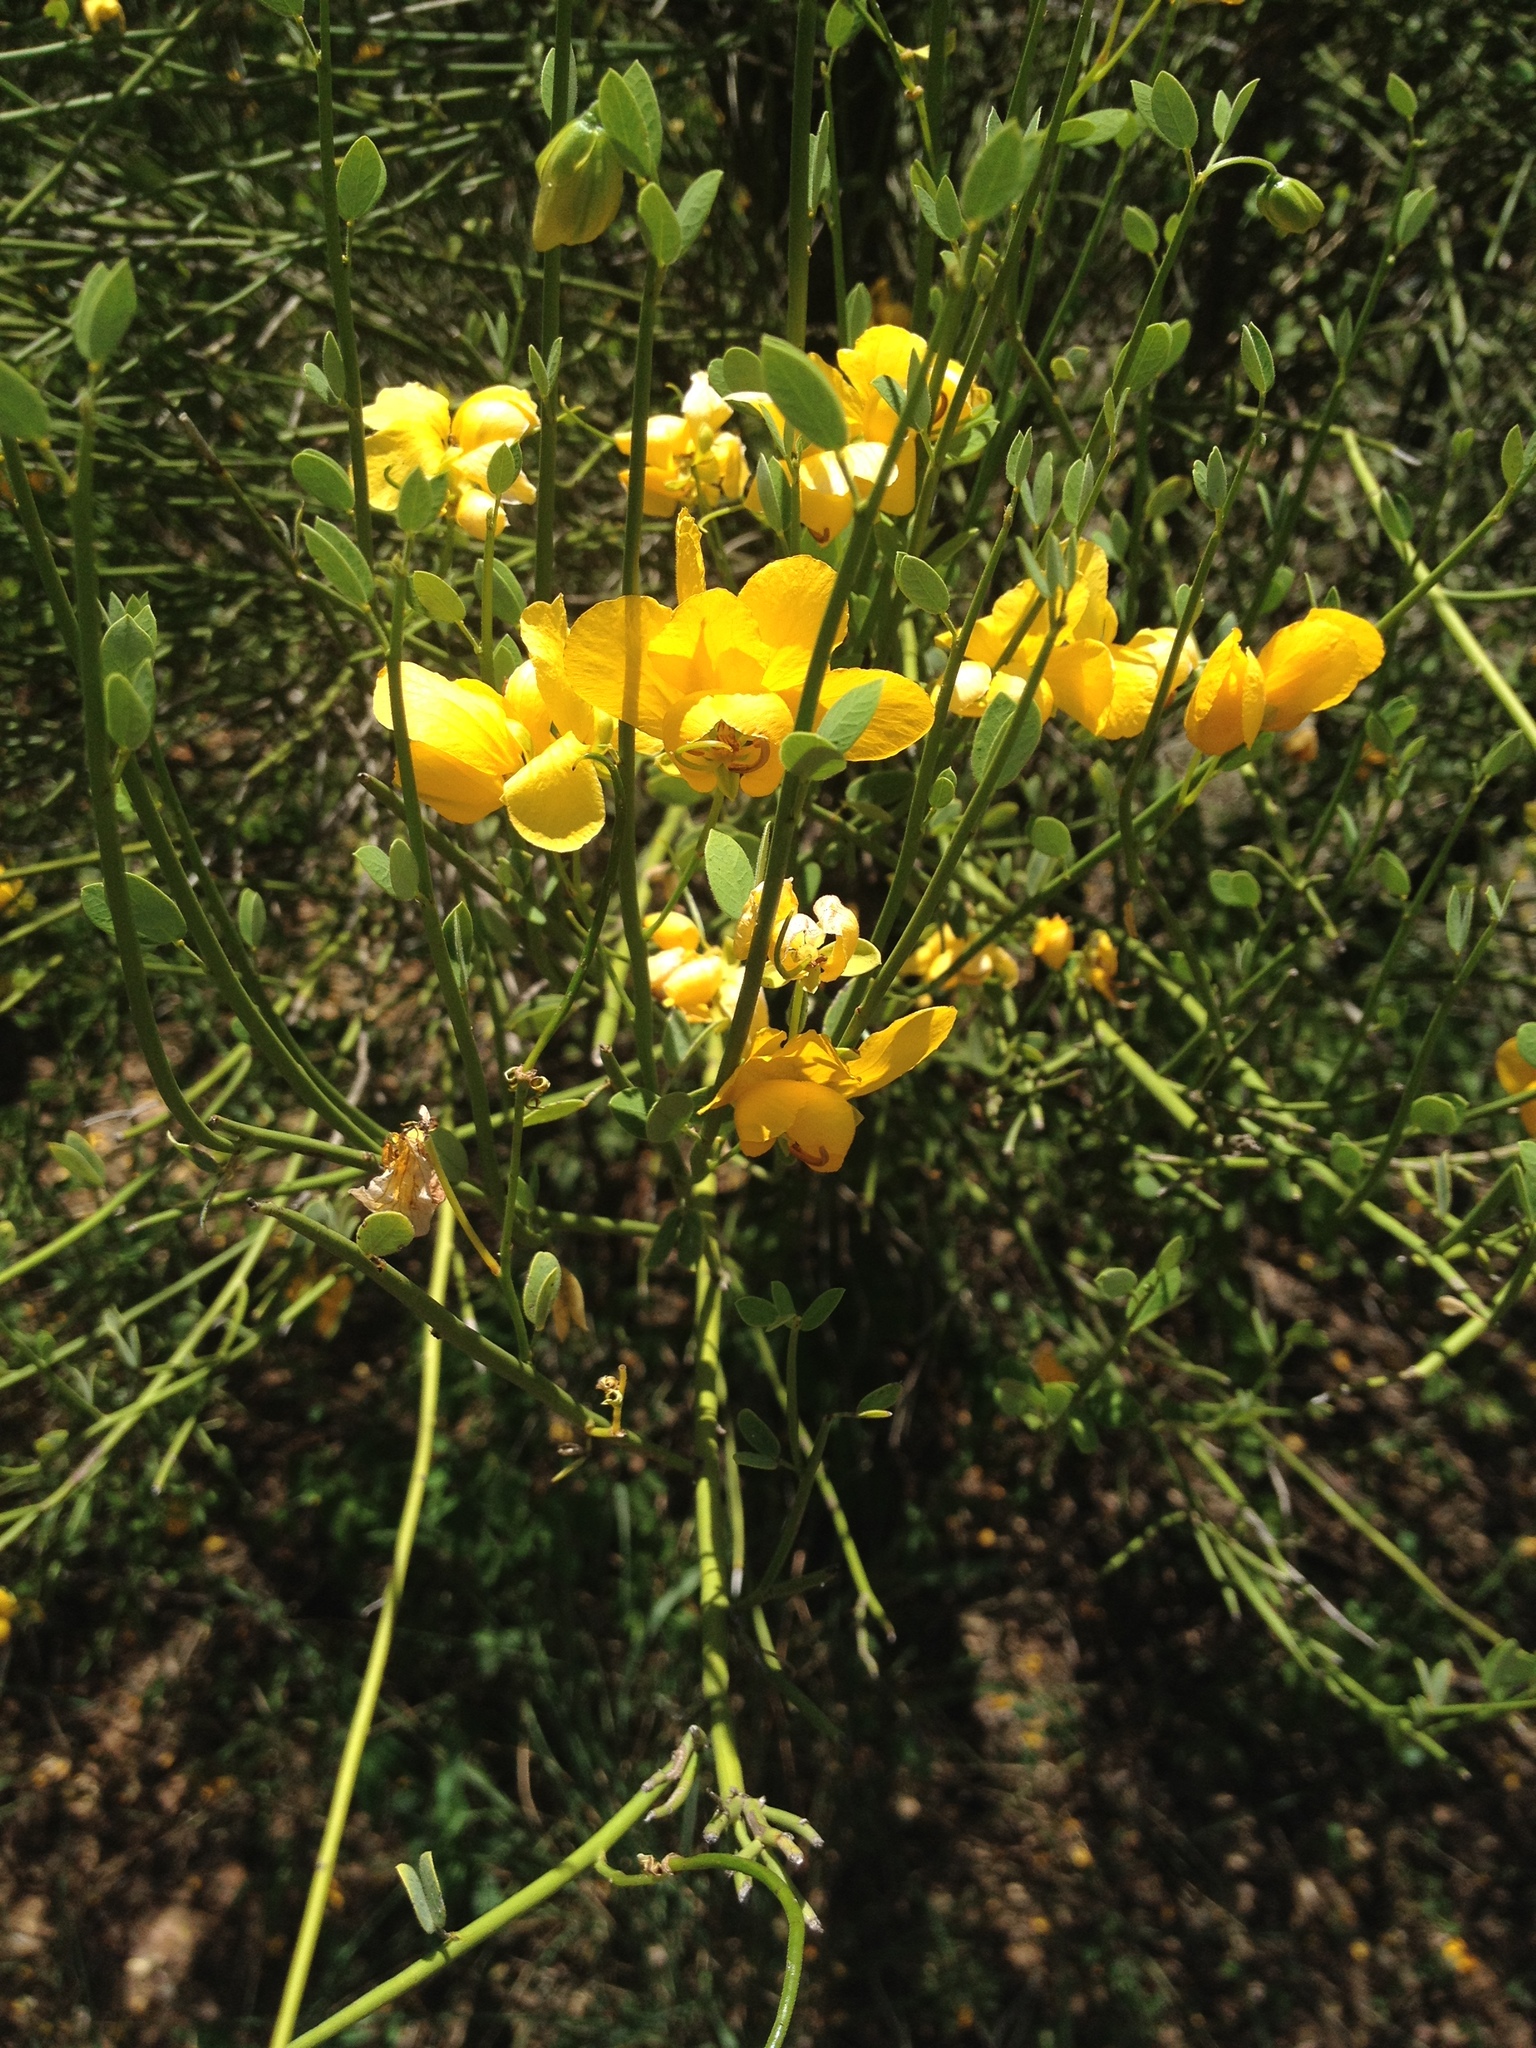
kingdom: Plantae
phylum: Tracheophyta
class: Magnoliopsida
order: Fabales
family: Fabaceae
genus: Senna
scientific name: Senna chloroclada
